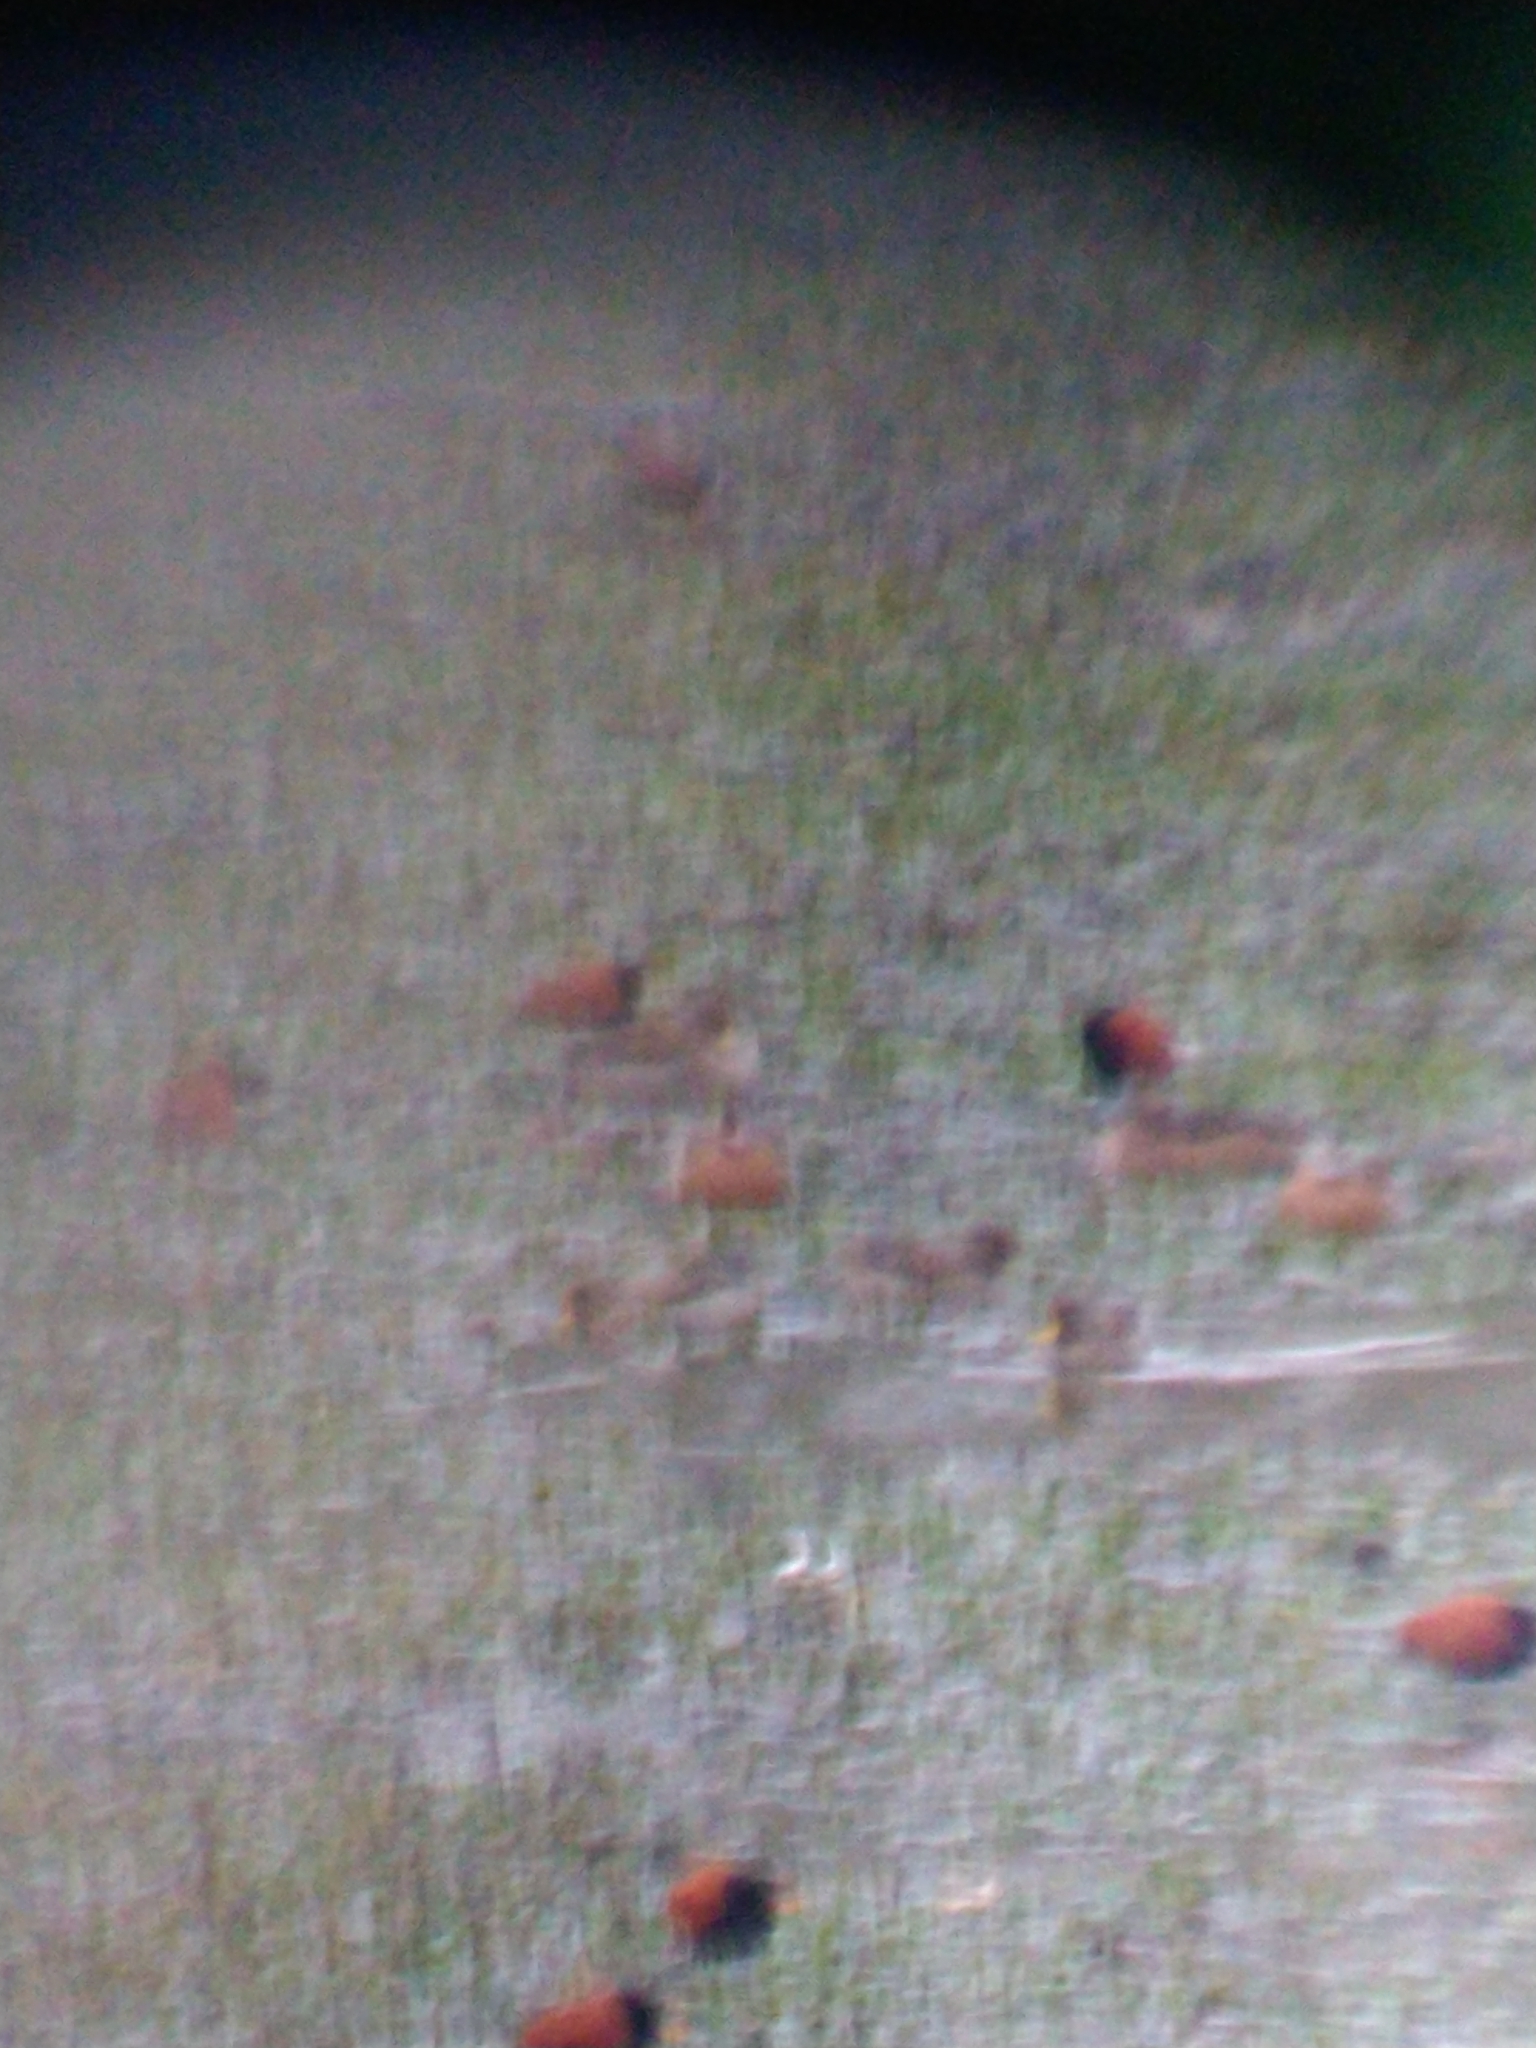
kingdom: Animalia
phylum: Chordata
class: Aves
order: Charadriiformes
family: Jacanidae
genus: Jacana
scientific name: Jacana jacana
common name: Wattled jacana
